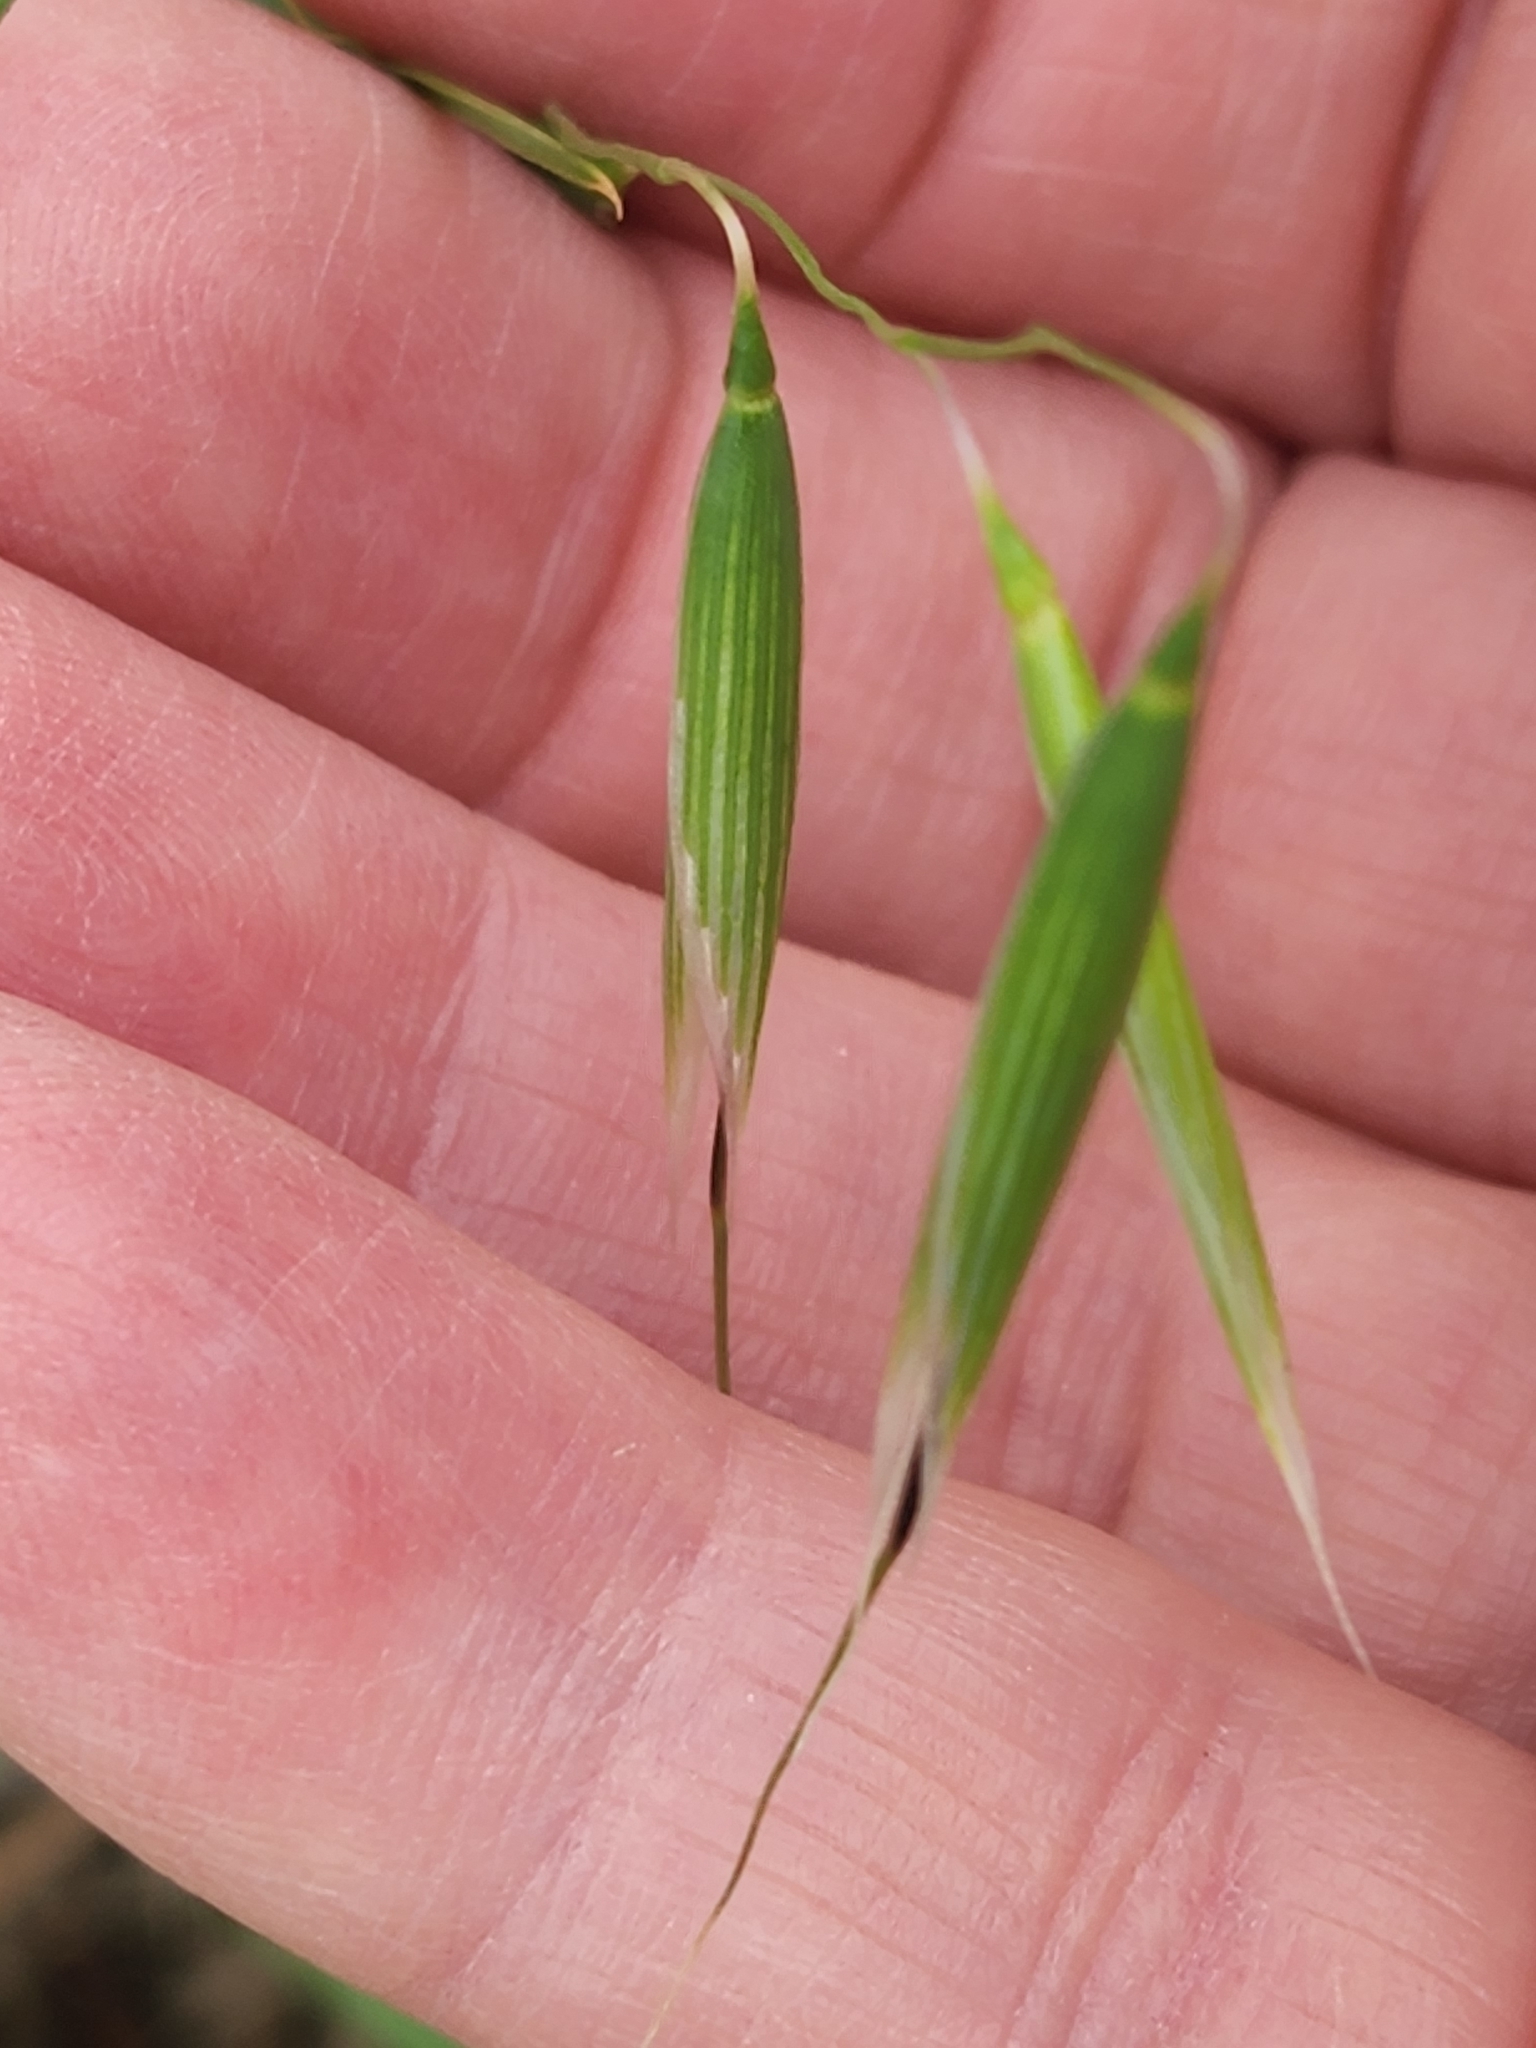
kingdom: Plantae
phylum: Tracheophyta
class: Liliopsida
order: Poales
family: Poaceae
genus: Avena
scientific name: Avena fatua
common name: Wild oat
